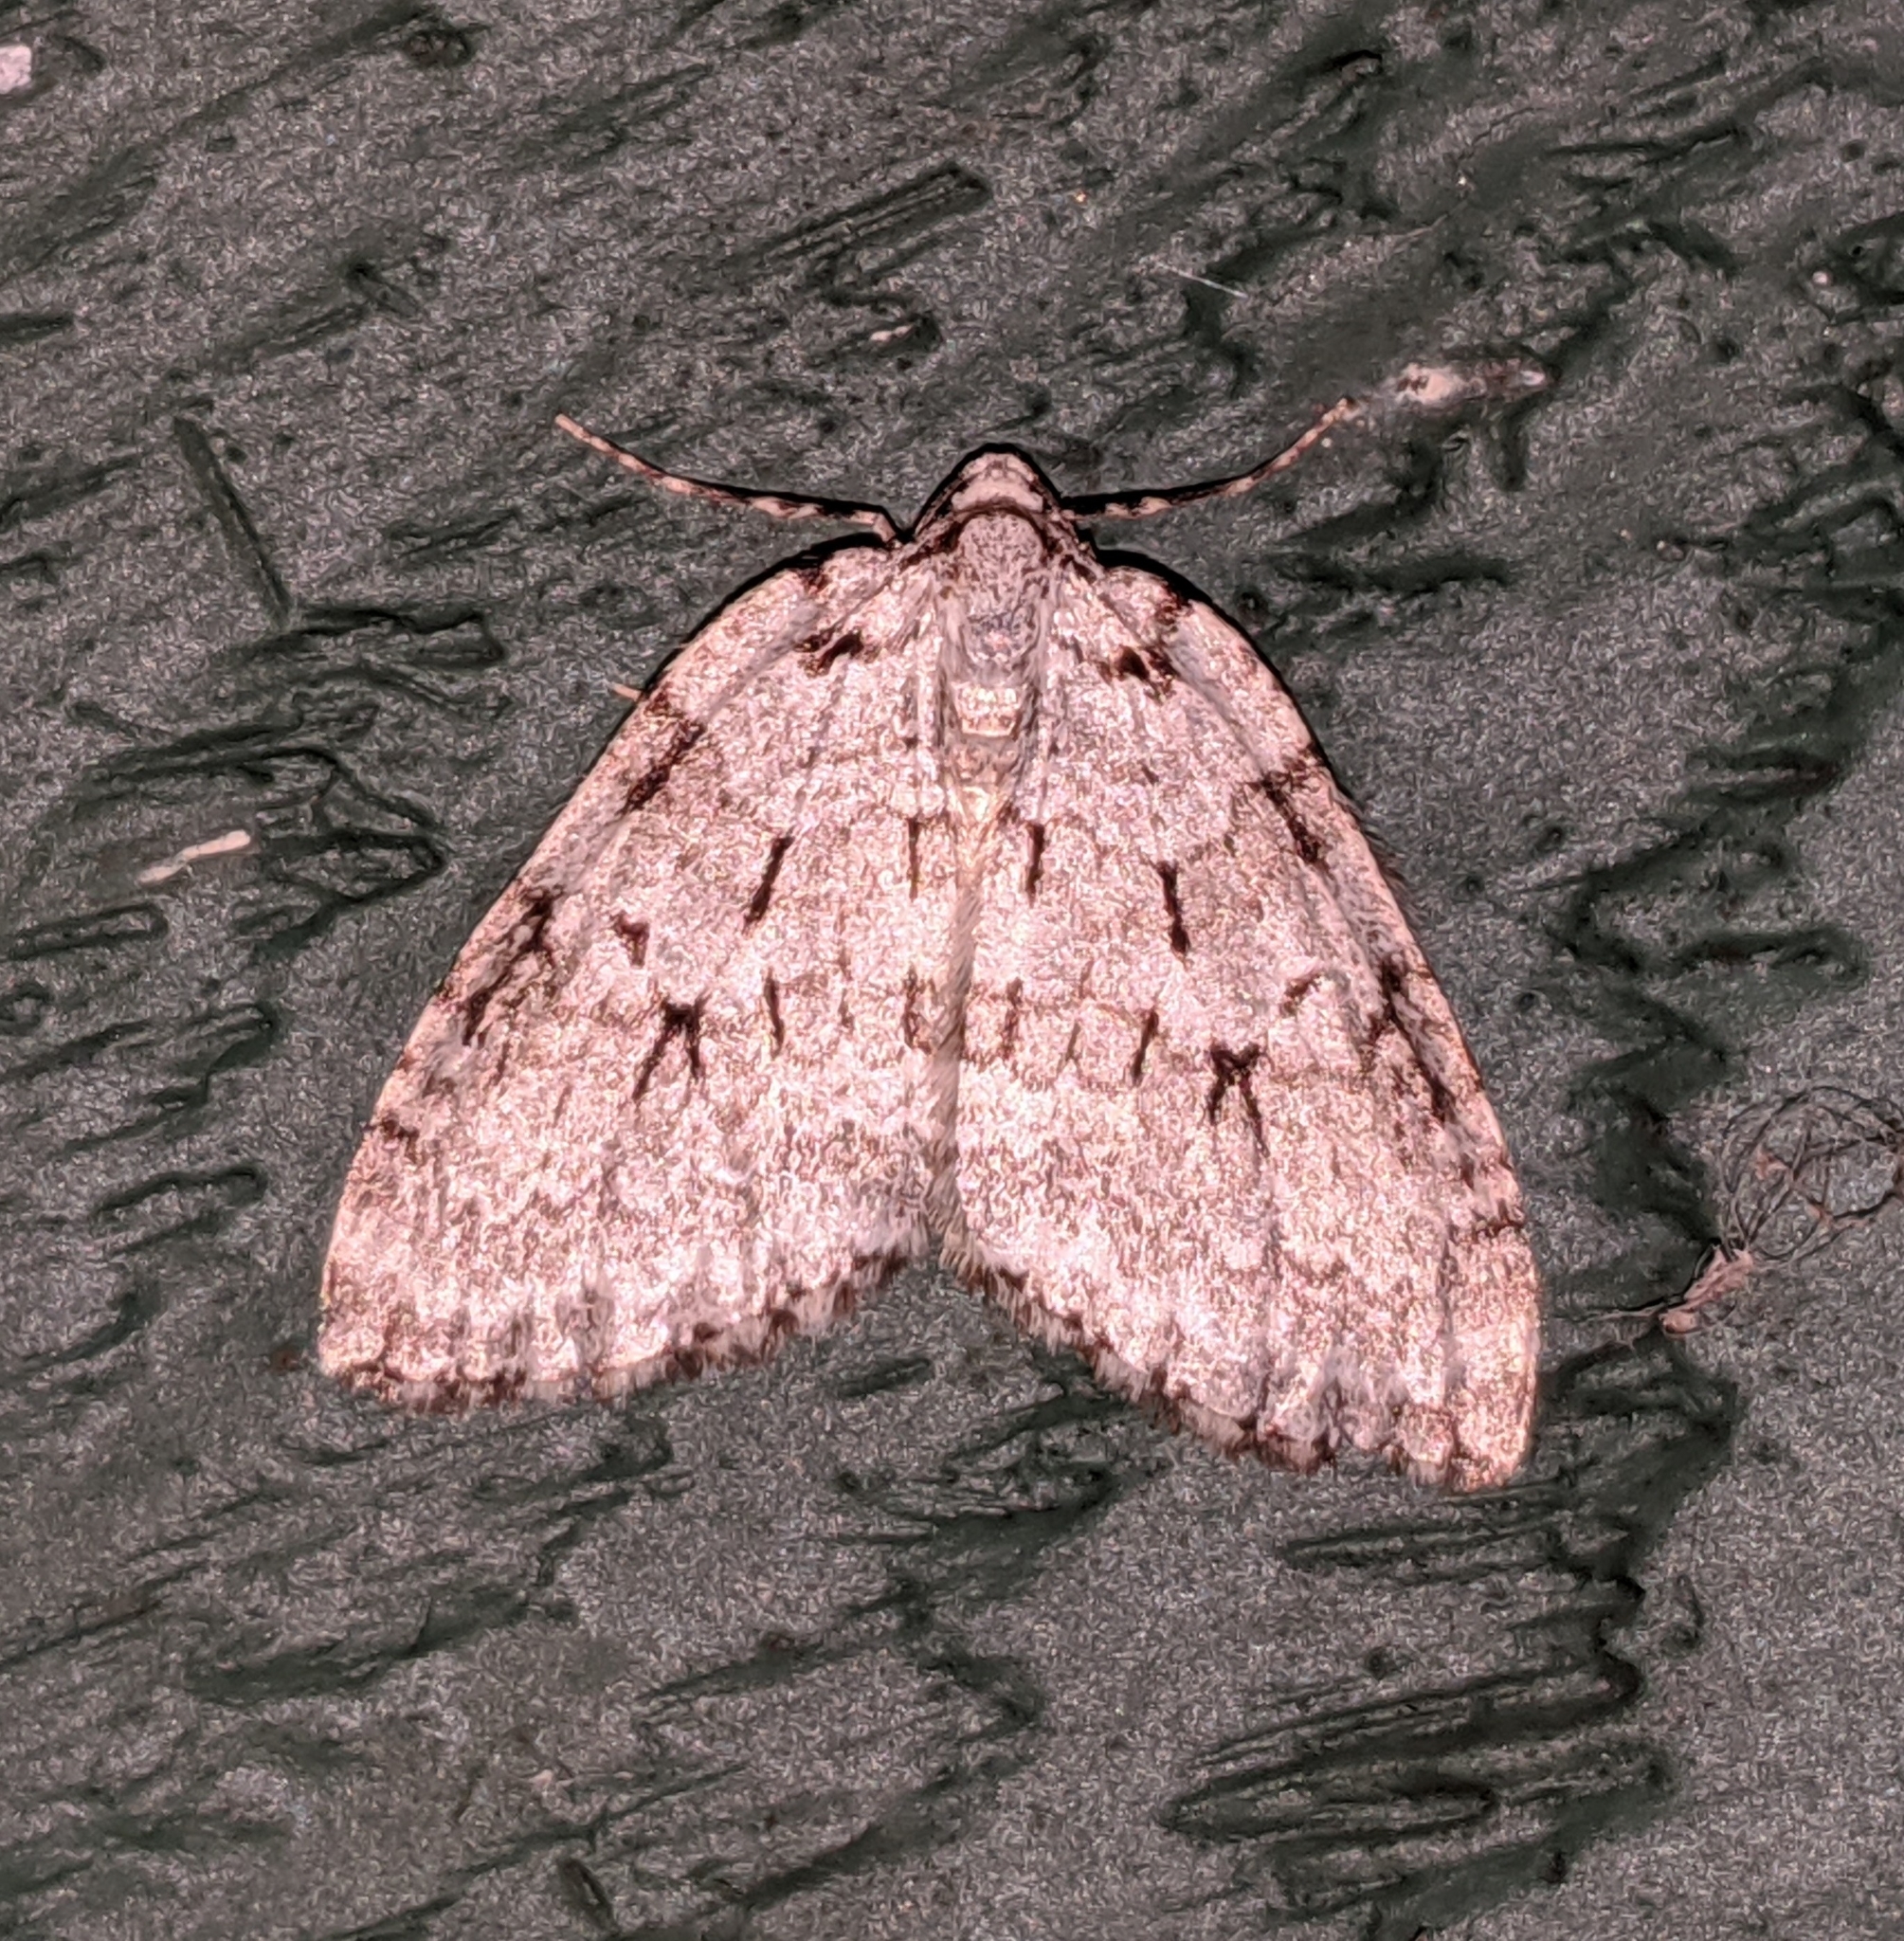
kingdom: Animalia
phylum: Arthropoda
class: Insecta
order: Lepidoptera
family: Geometridae
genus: Epirrita
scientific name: Epirrita autumnata
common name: Autumnal moth
